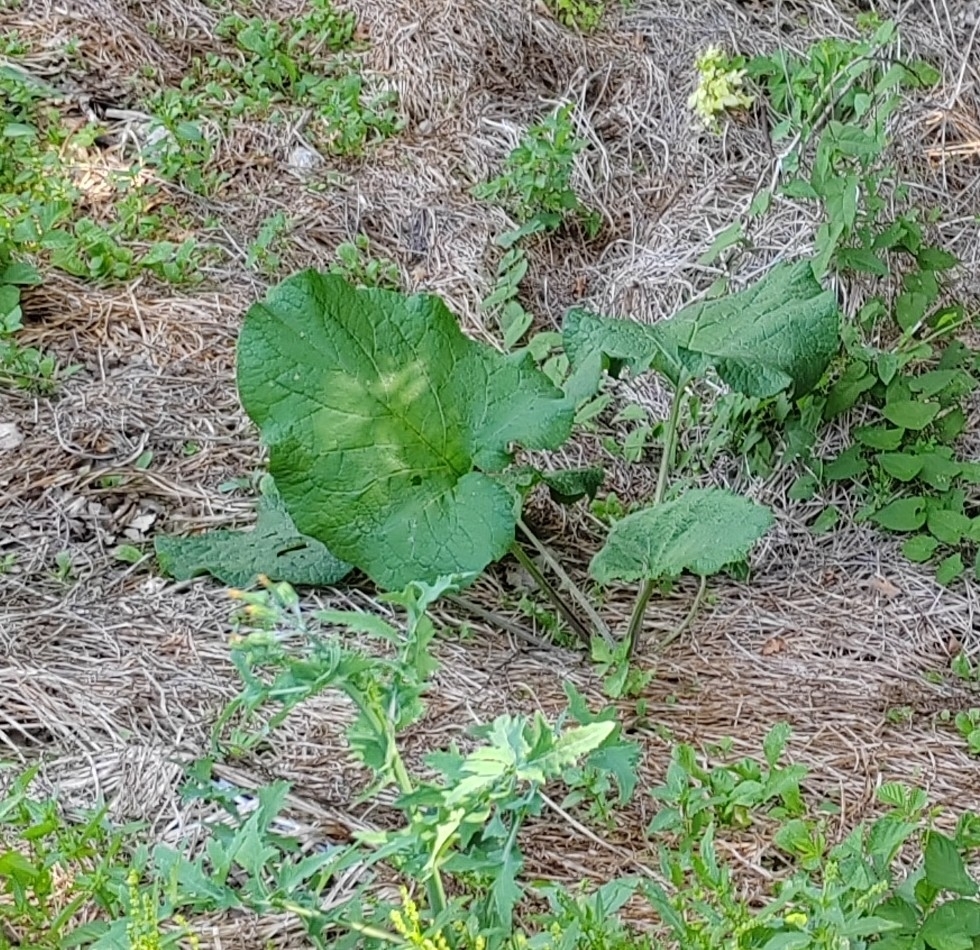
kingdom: Plantae
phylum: Tracheophyta
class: Magnoliopsida
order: Asterales
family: Asteraceae
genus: Arctium
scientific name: Arctium
